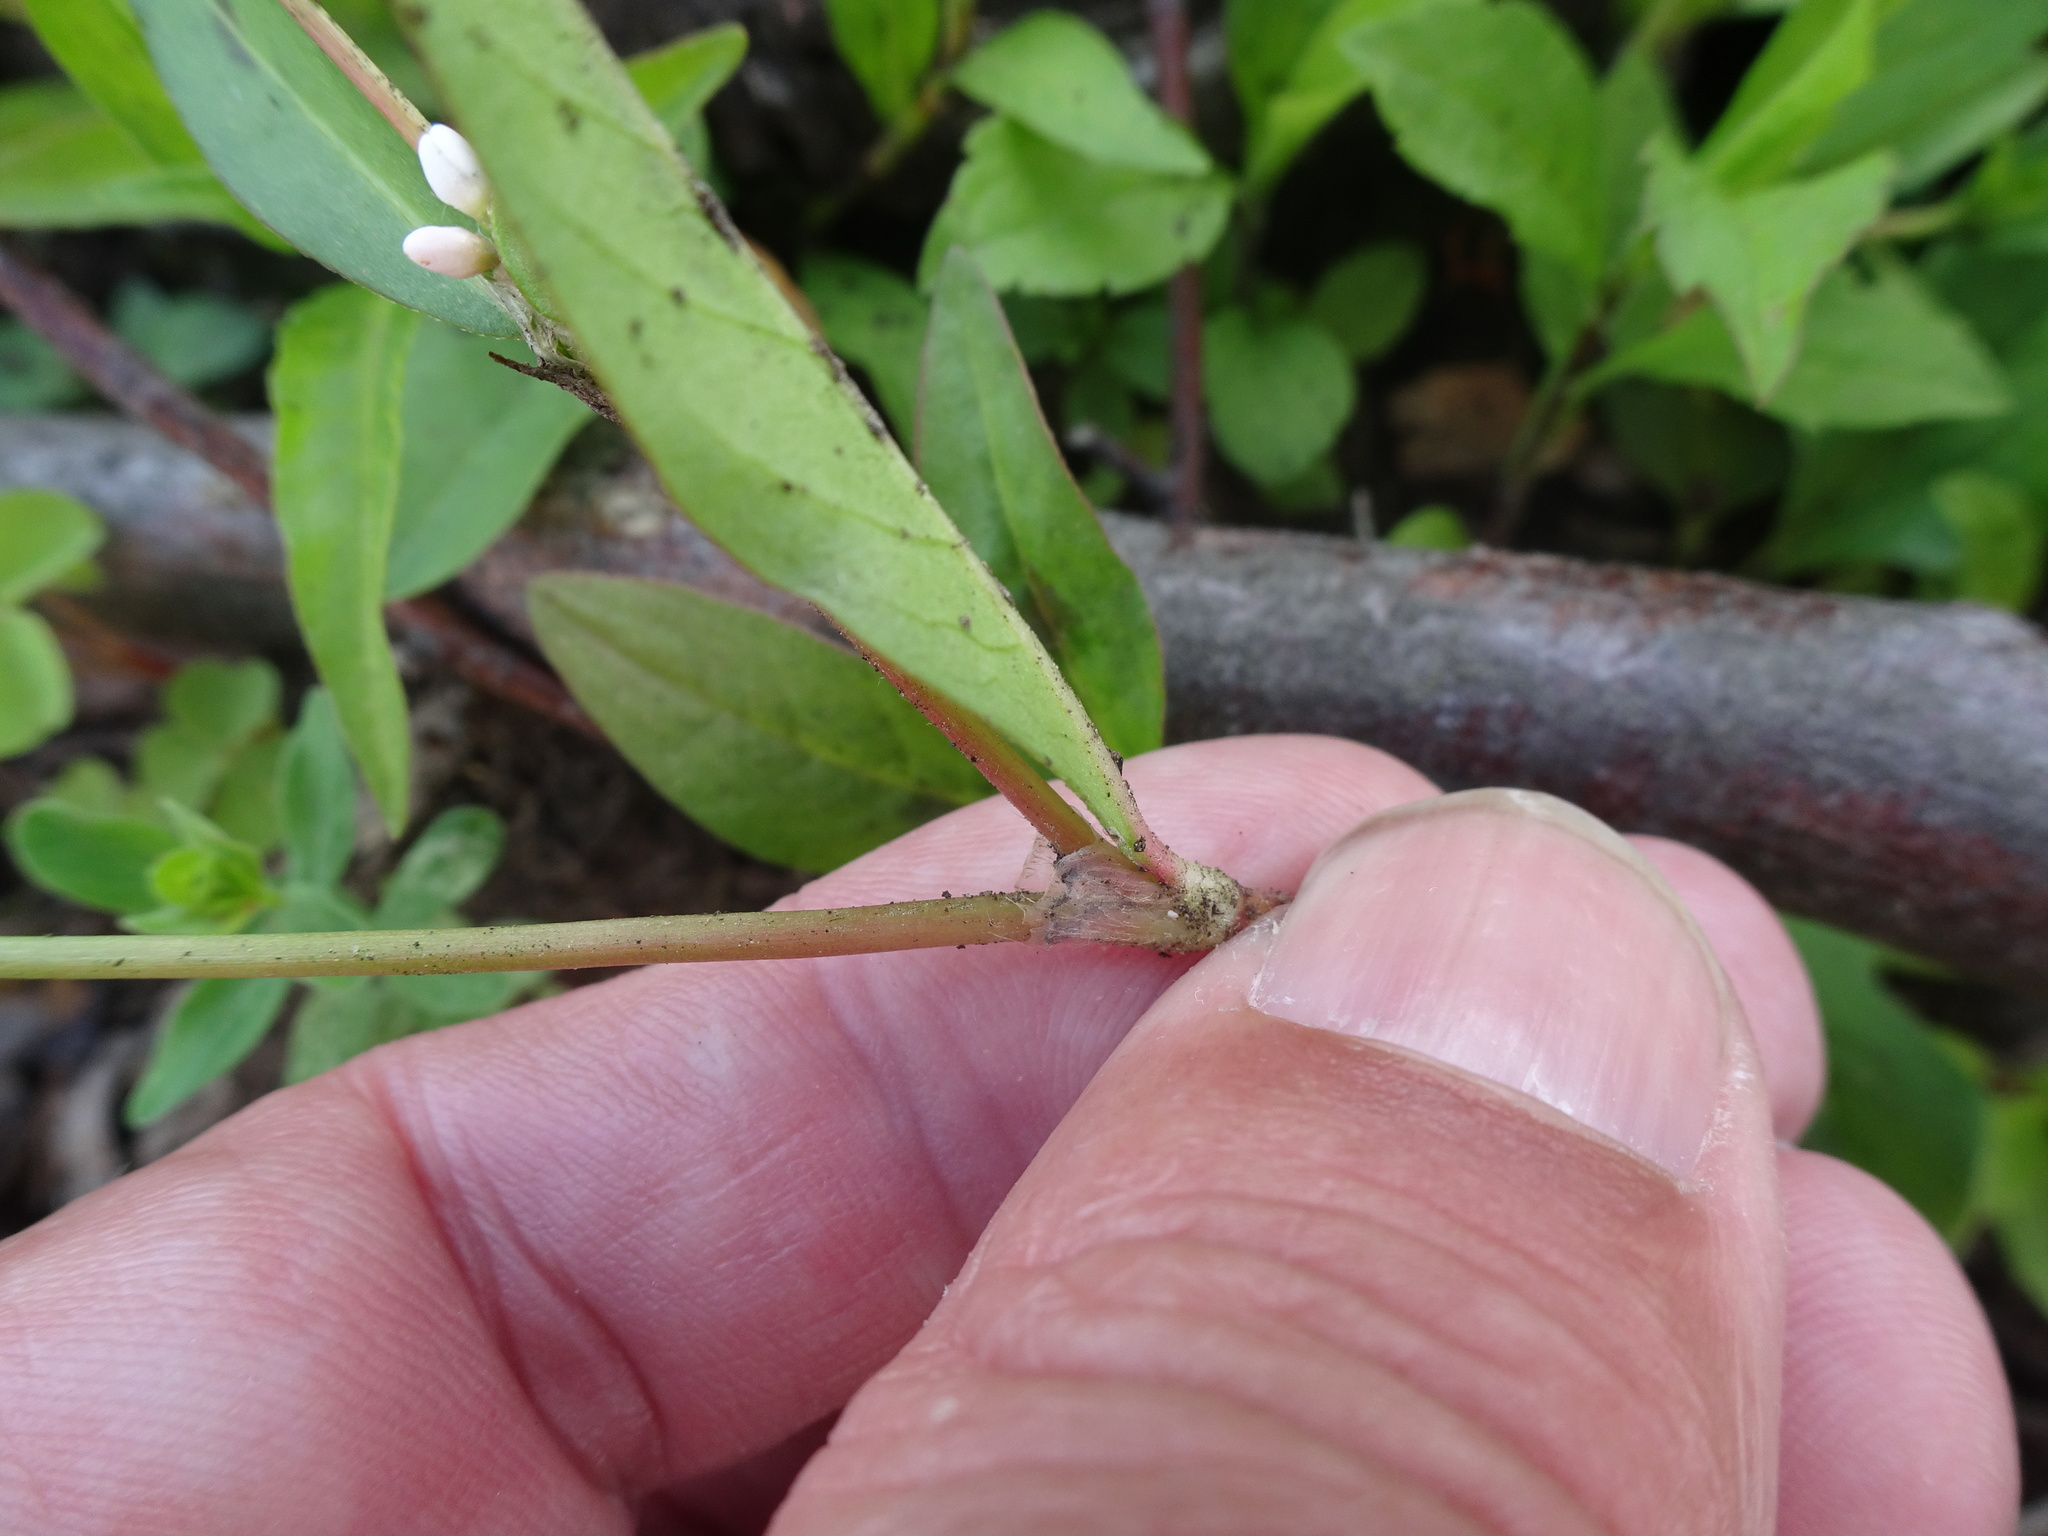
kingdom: Plantae
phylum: Tracheophyta
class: Magnoliopsida
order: Caryophyllales
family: Polygonaceae
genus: Persicaria
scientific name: Persicaria maculosa
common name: Redshank
